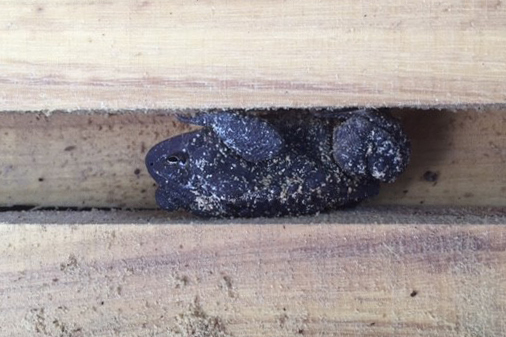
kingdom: Animalia
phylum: Chordata
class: Amphibia
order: Anura
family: Bufonidae
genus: Anaxyrus
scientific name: Anaxyrus americanus
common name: American toad
